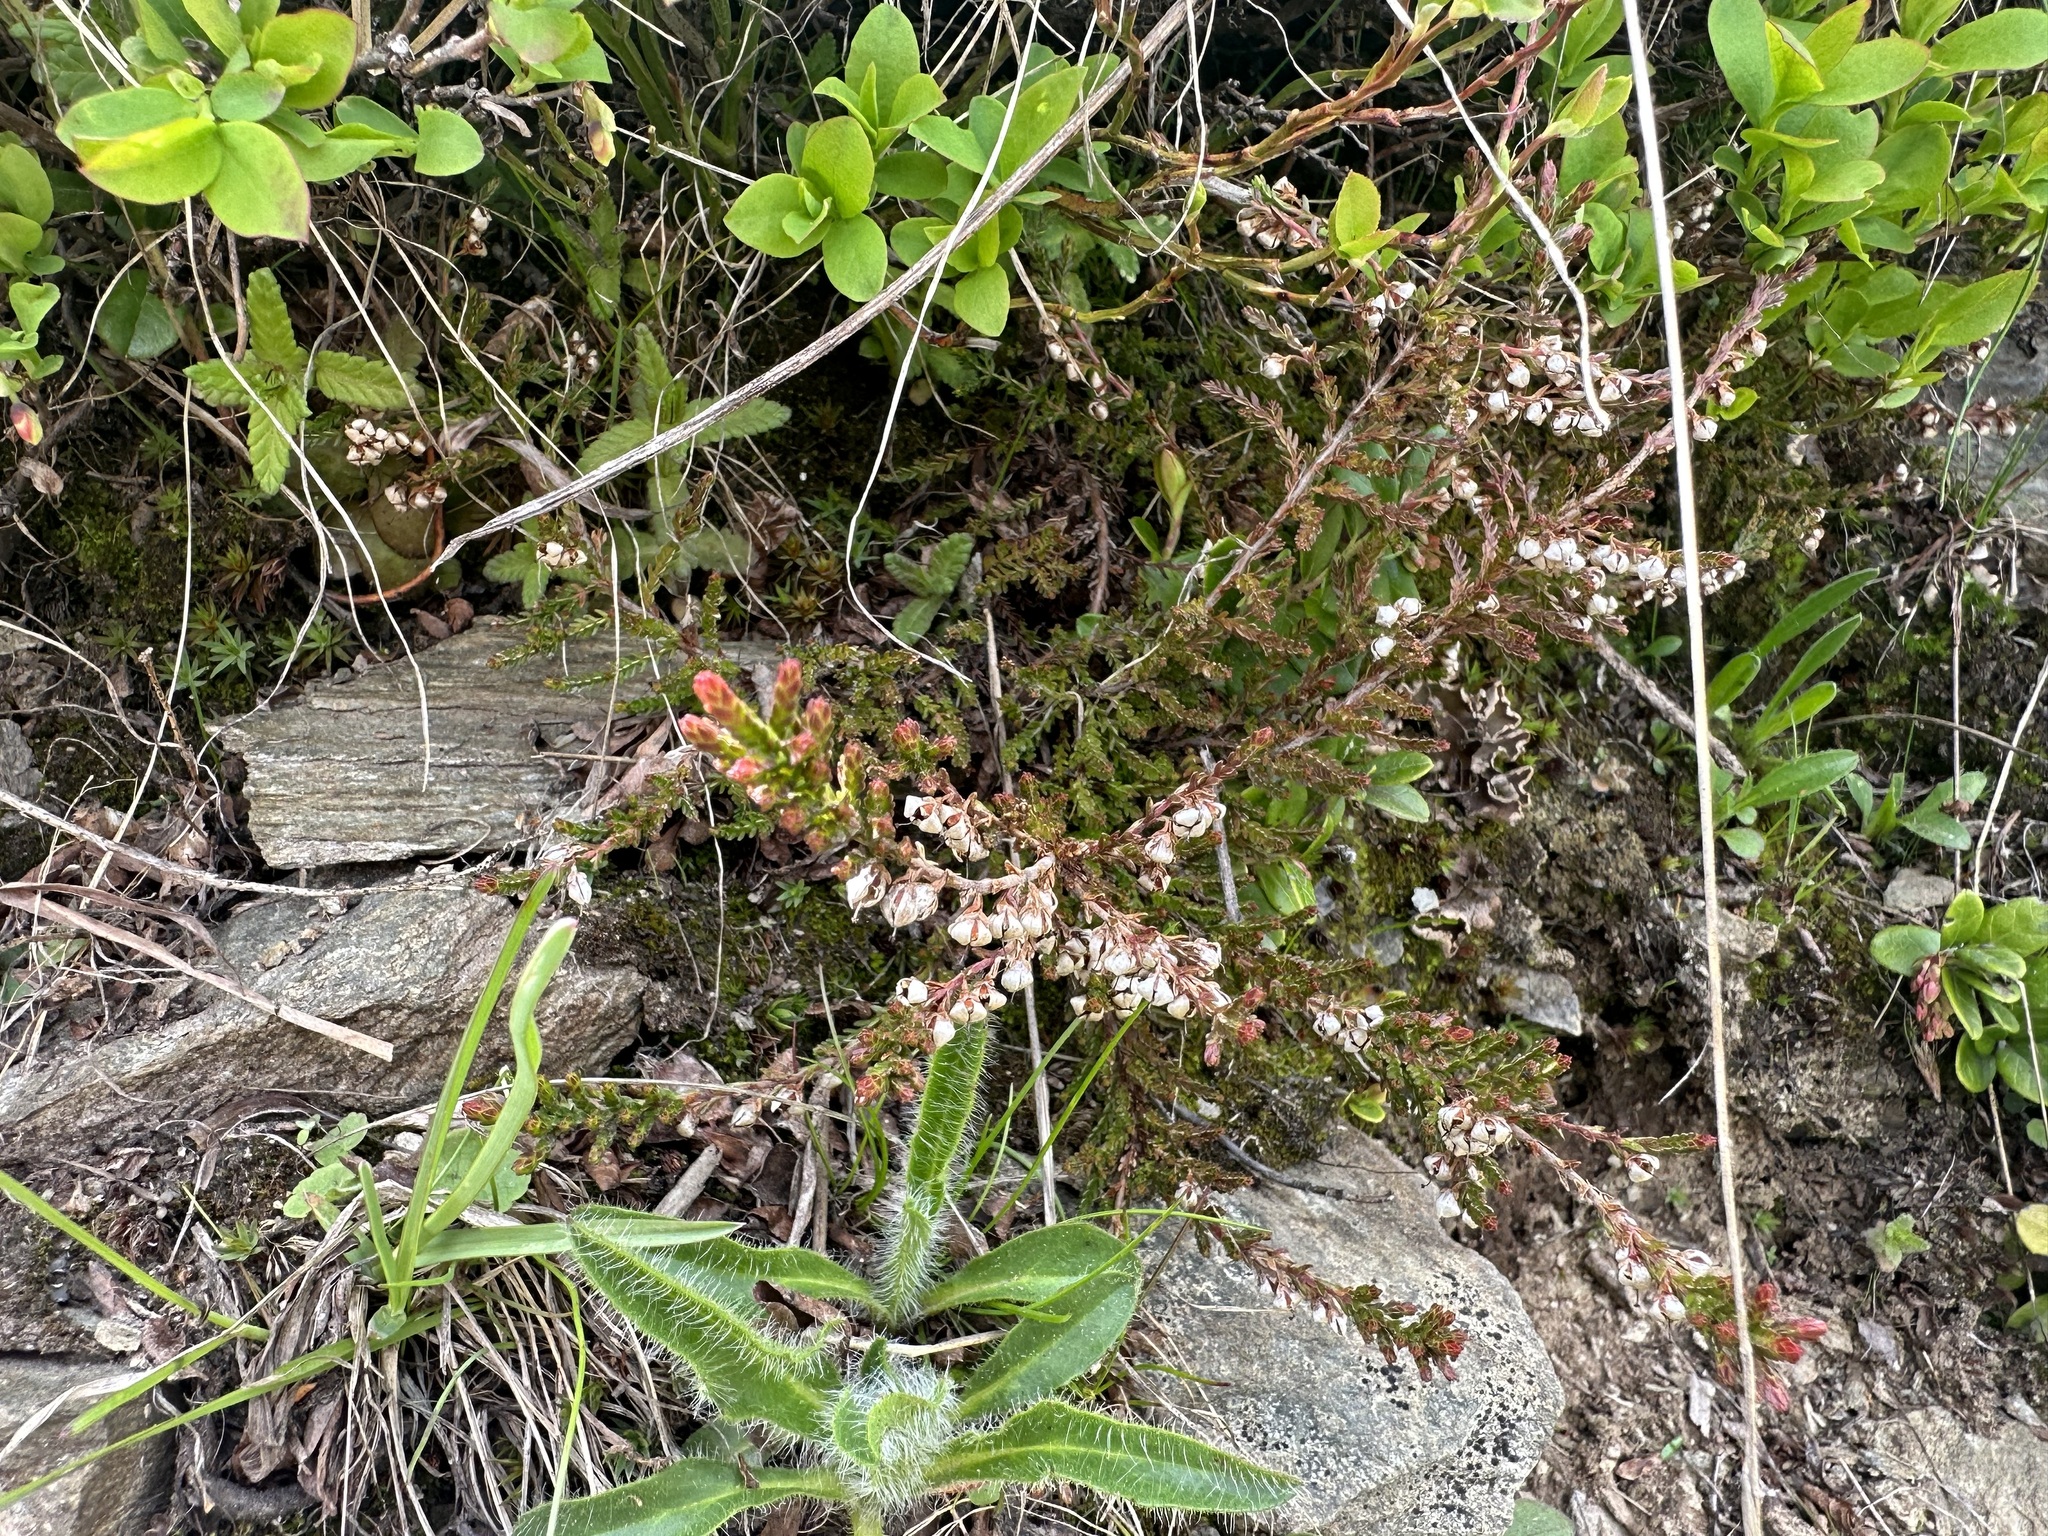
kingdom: Plantae
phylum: Tracheophyta
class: Magnoliopsida
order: Ericales
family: Ericaceae
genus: Calluna
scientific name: Calluna vulgaris
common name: Heather
